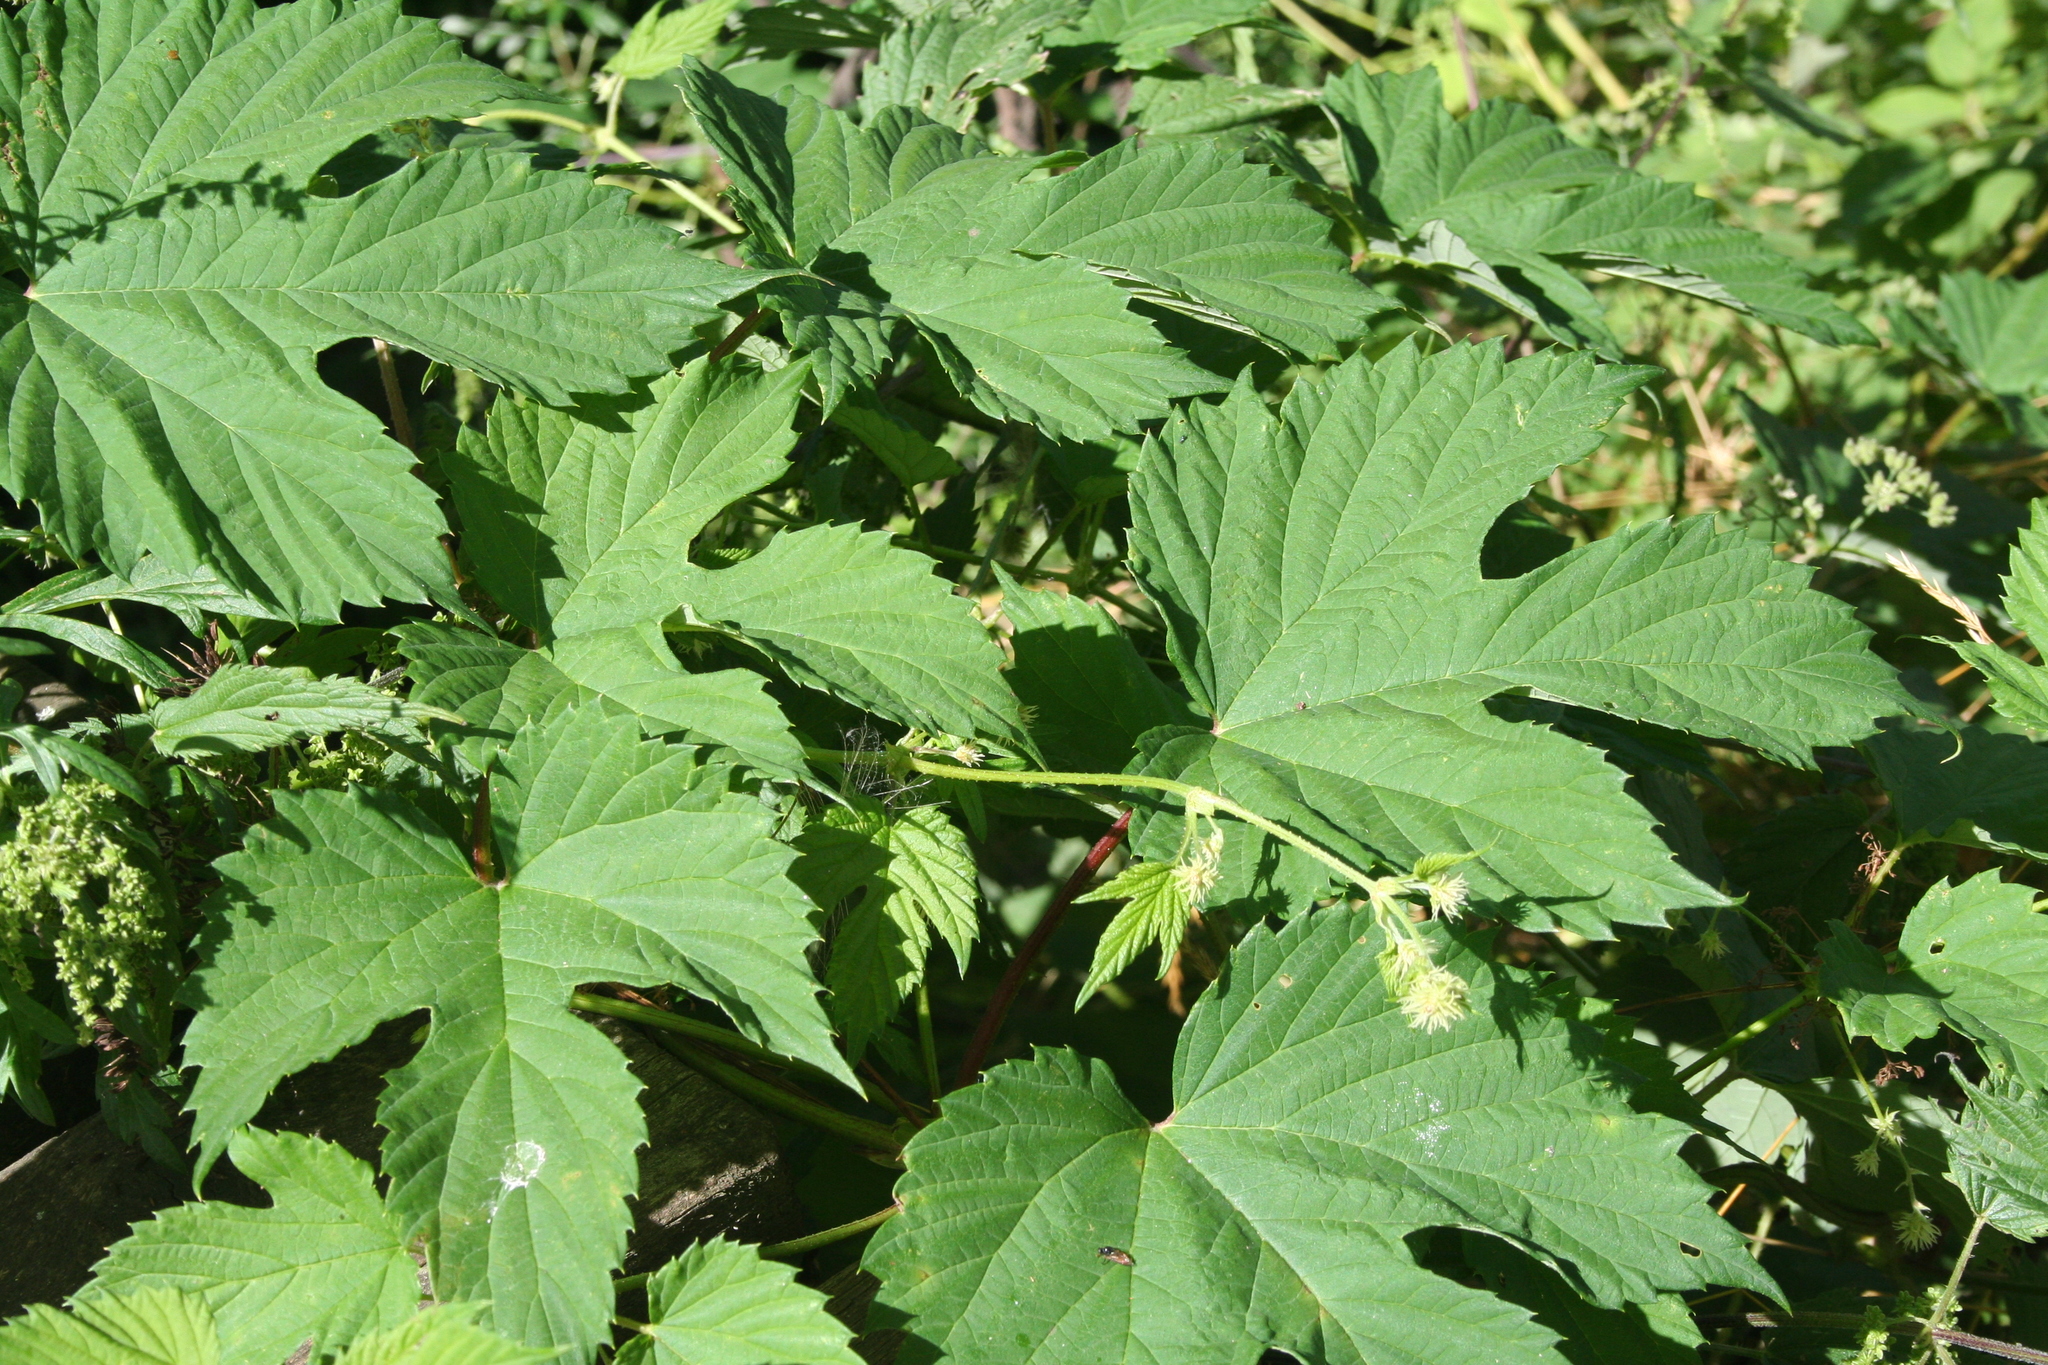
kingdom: Plantae
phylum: Tracheophyta
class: Magnoliopsida
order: Rosales
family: Cannabaceae
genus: Humulus
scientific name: Humulus lupulus
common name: Hop
